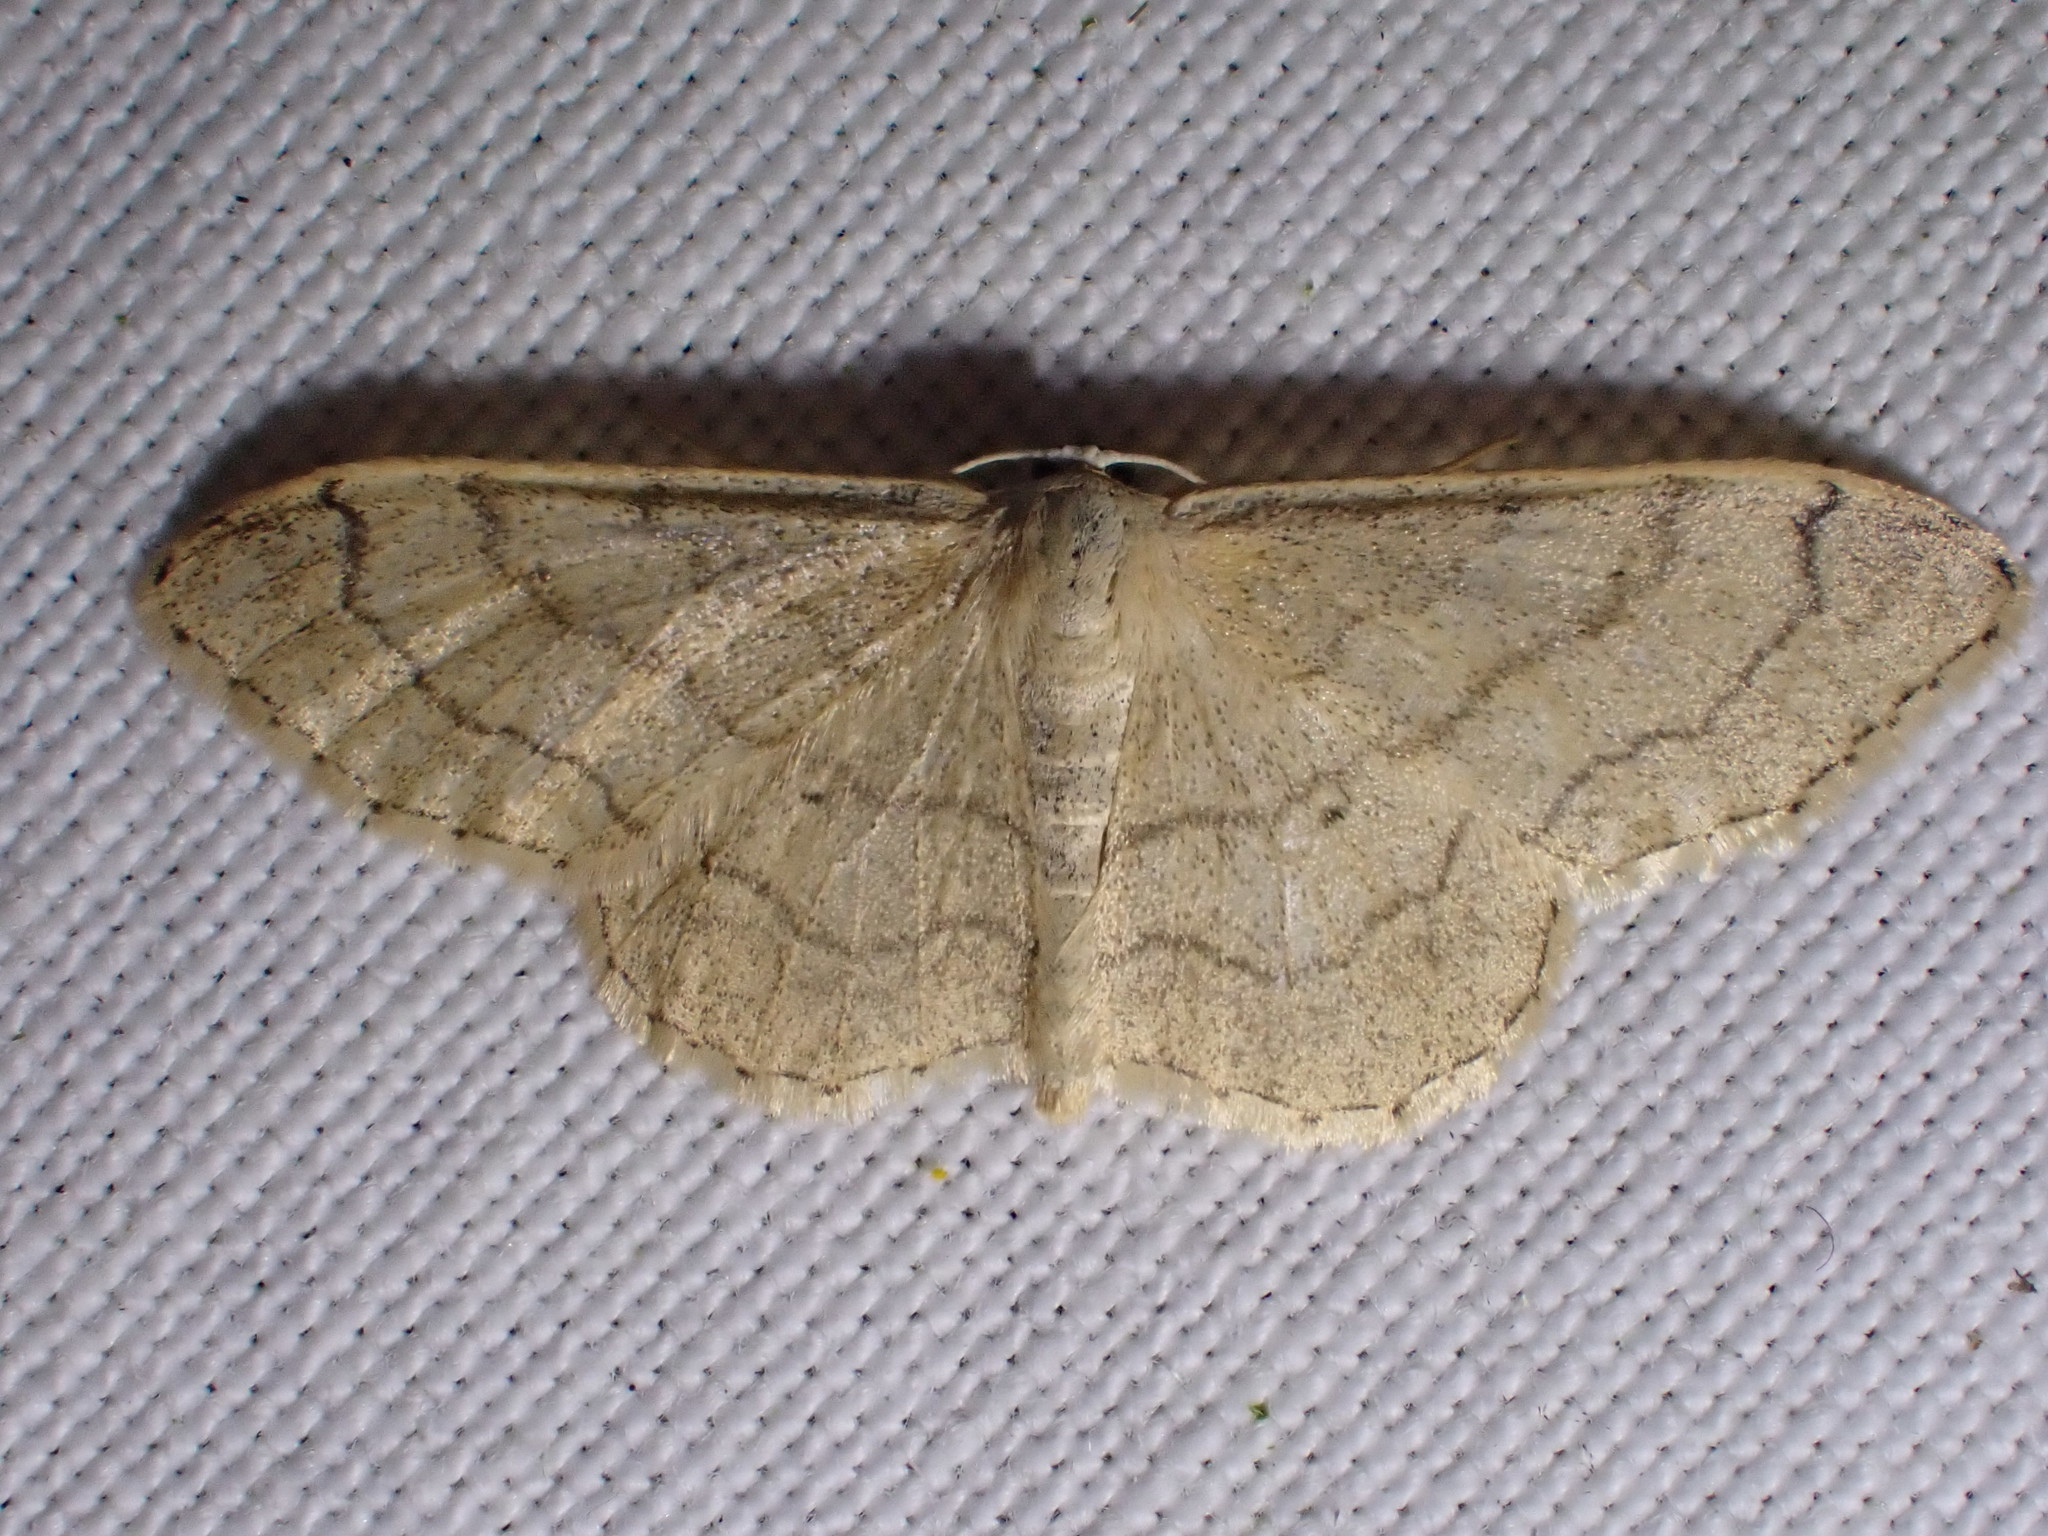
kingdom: Animalia
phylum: Arthropoda
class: Insecta
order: Lepidoptera
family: Geometridae
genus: Idaea
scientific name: Idaea aversata
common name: Riband wave
